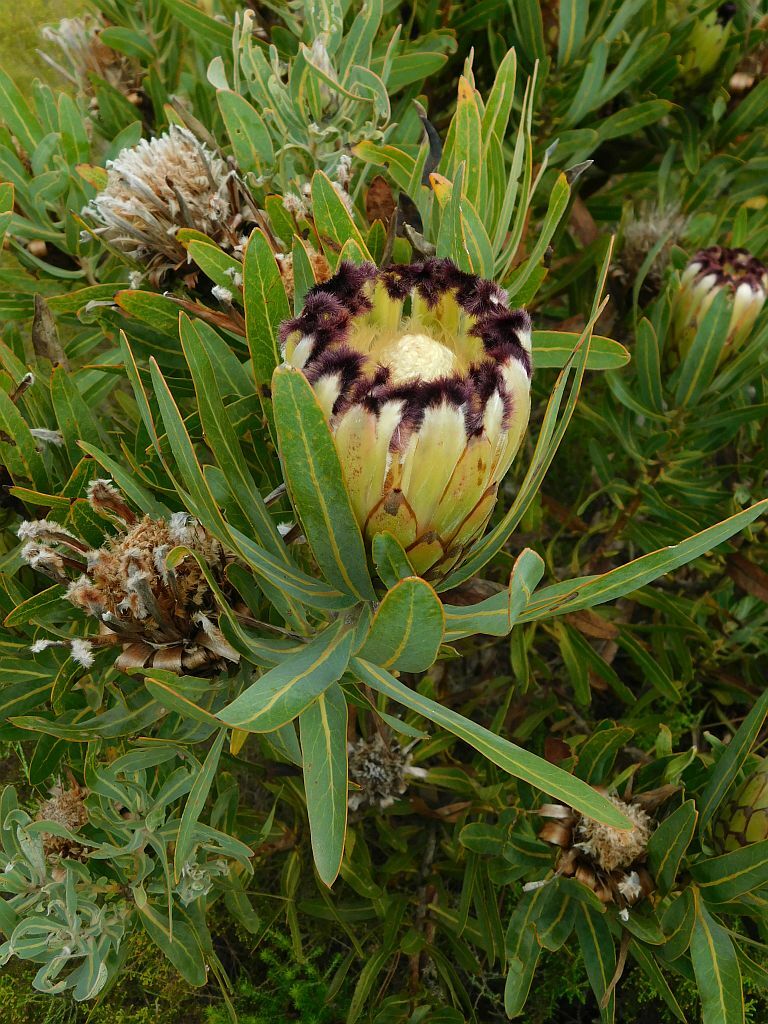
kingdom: Plantae
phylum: Tracheophyta
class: Magnoliopsida
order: Proteales
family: Proteaceae
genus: Protea
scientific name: Protea neriifolia
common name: Blue sugarbush
